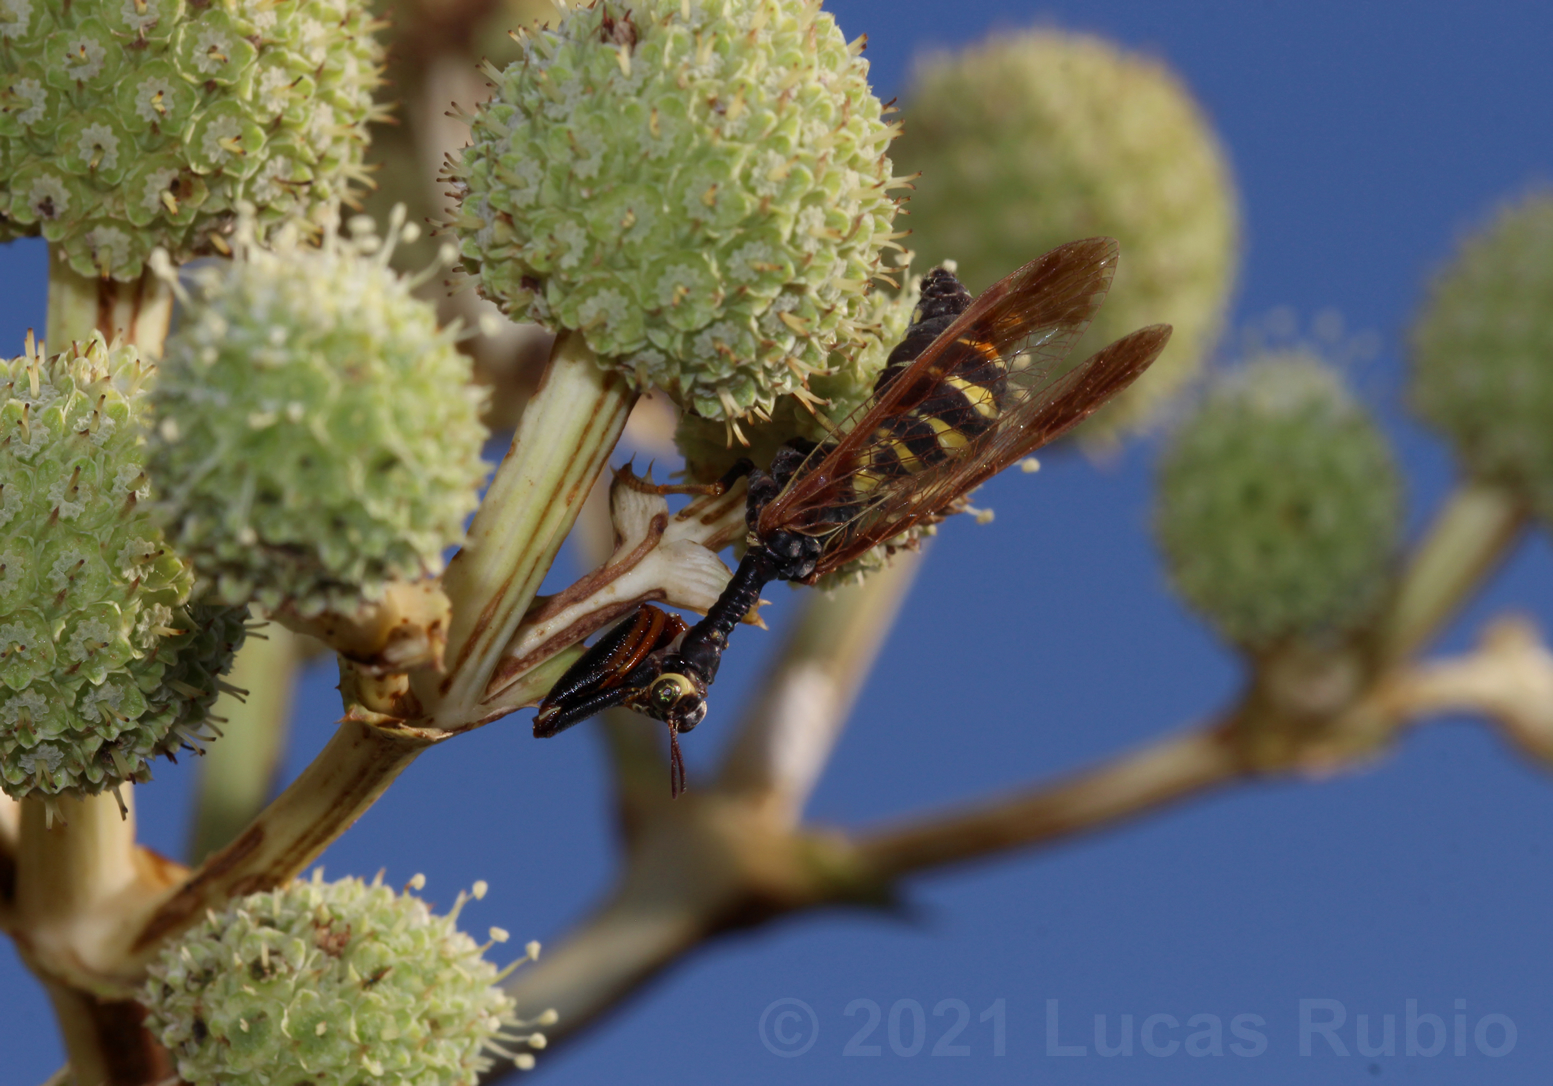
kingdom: Animalia
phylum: Arthropoda
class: Insecta
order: Neuroptera
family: Mantispidae
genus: Paramantispa
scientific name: Paramantispa ambusta
